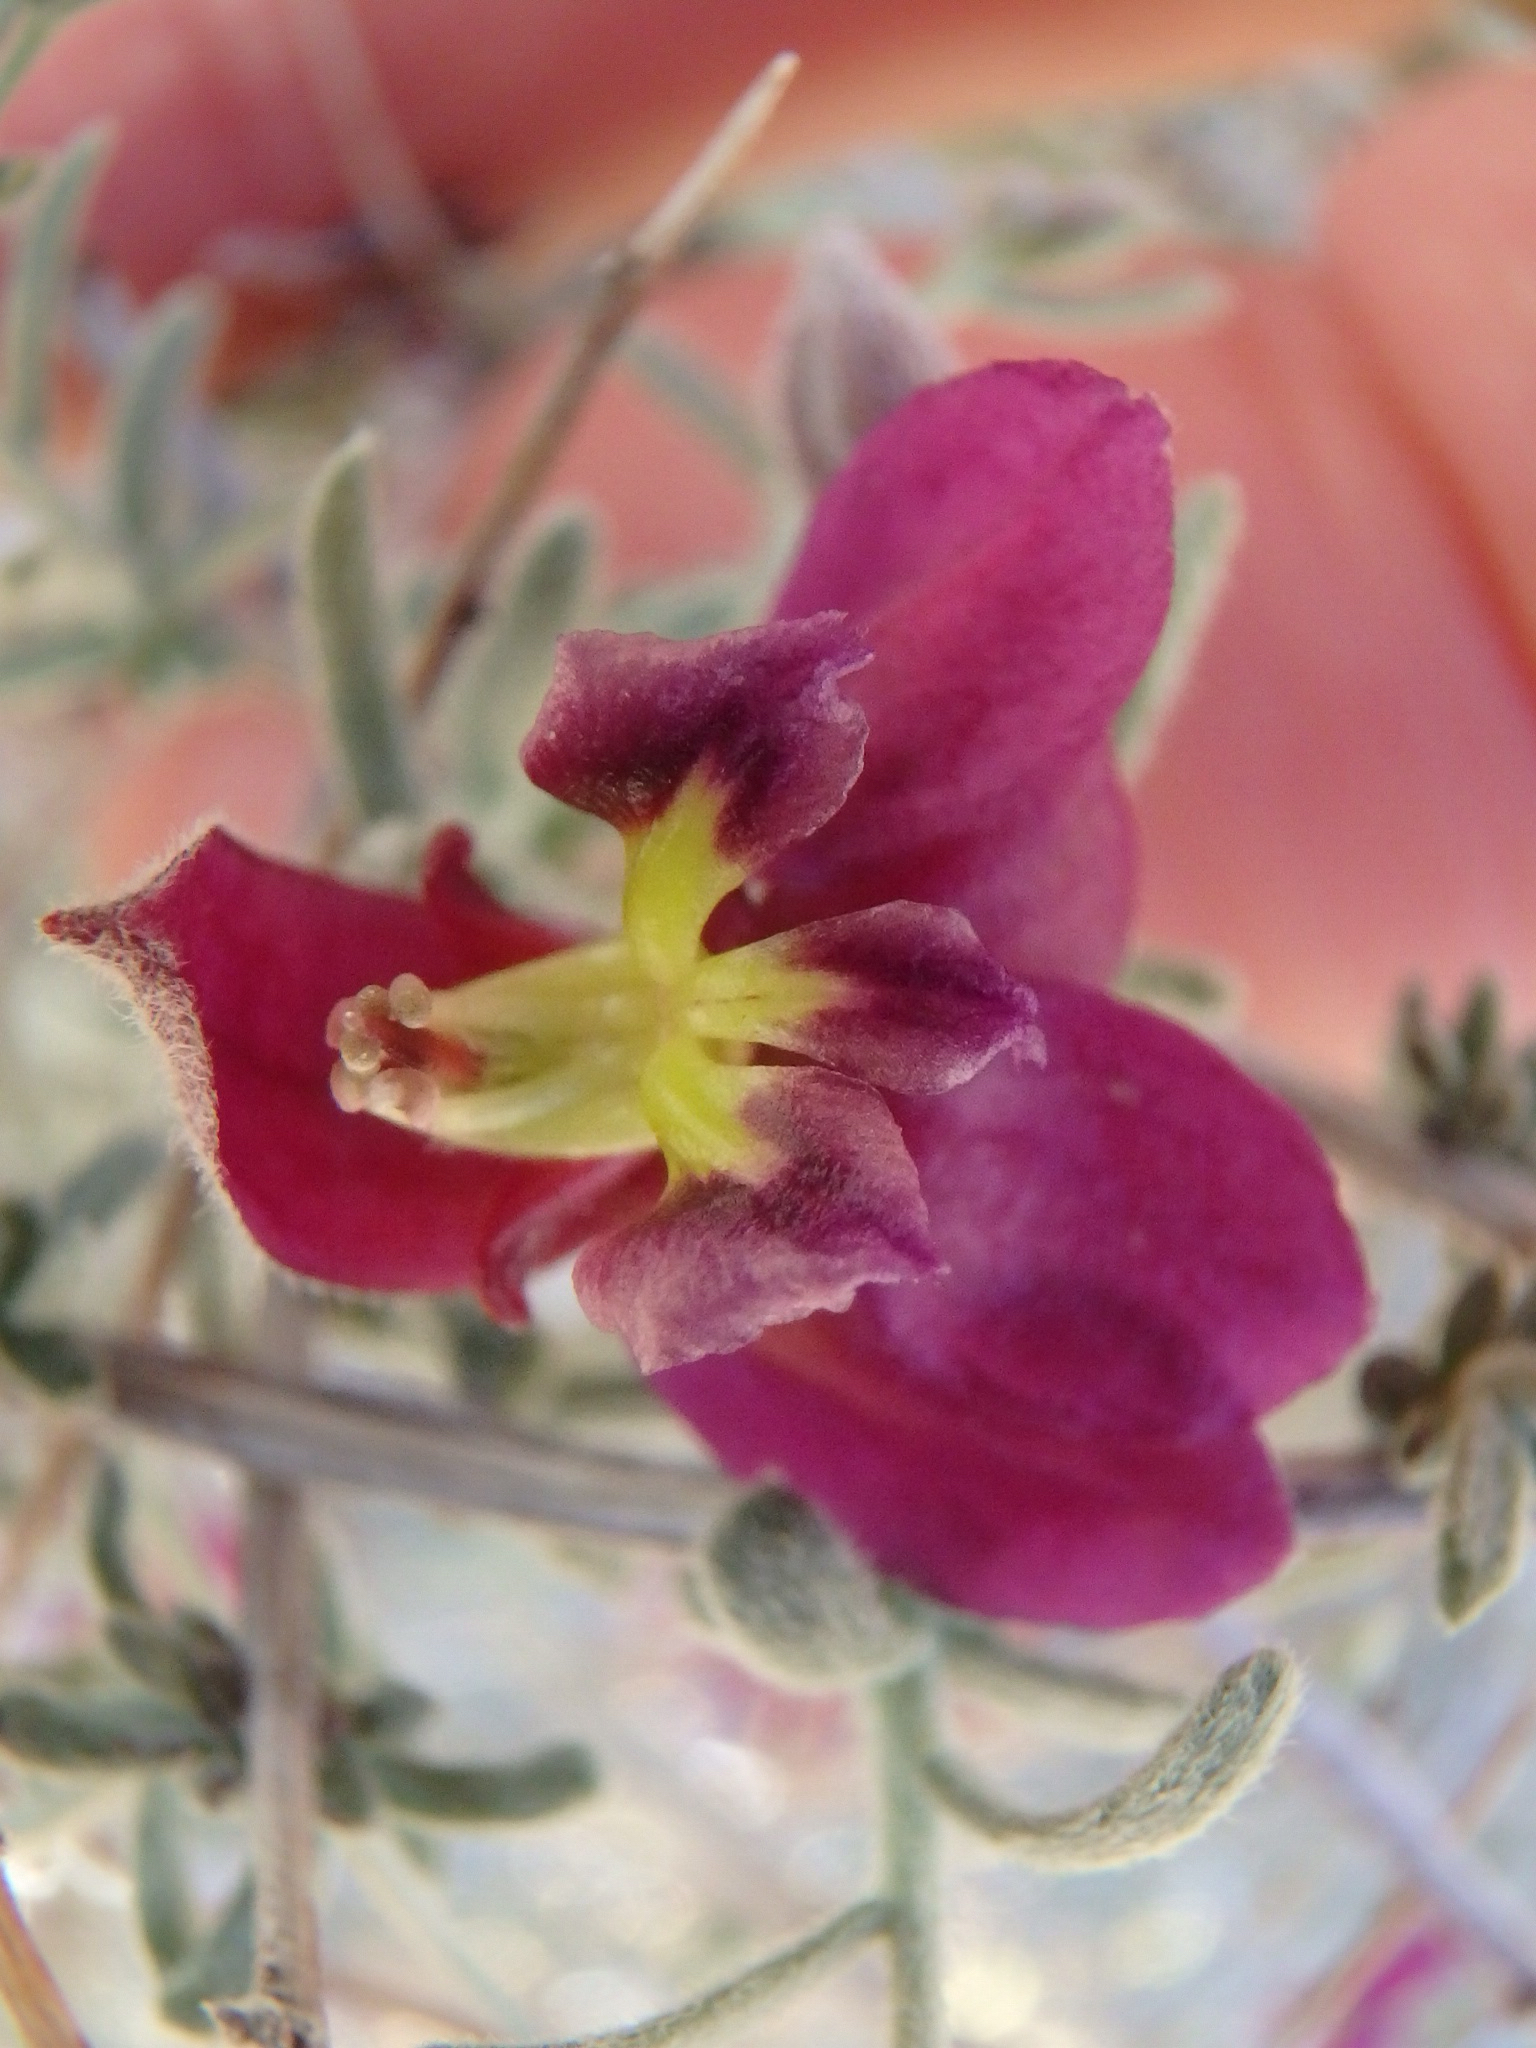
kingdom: Plantae
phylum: Tracheophyta
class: Magnoliopsida
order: Zygophyllales
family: Krameriaceae
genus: Krameria
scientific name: Krameria erecta
